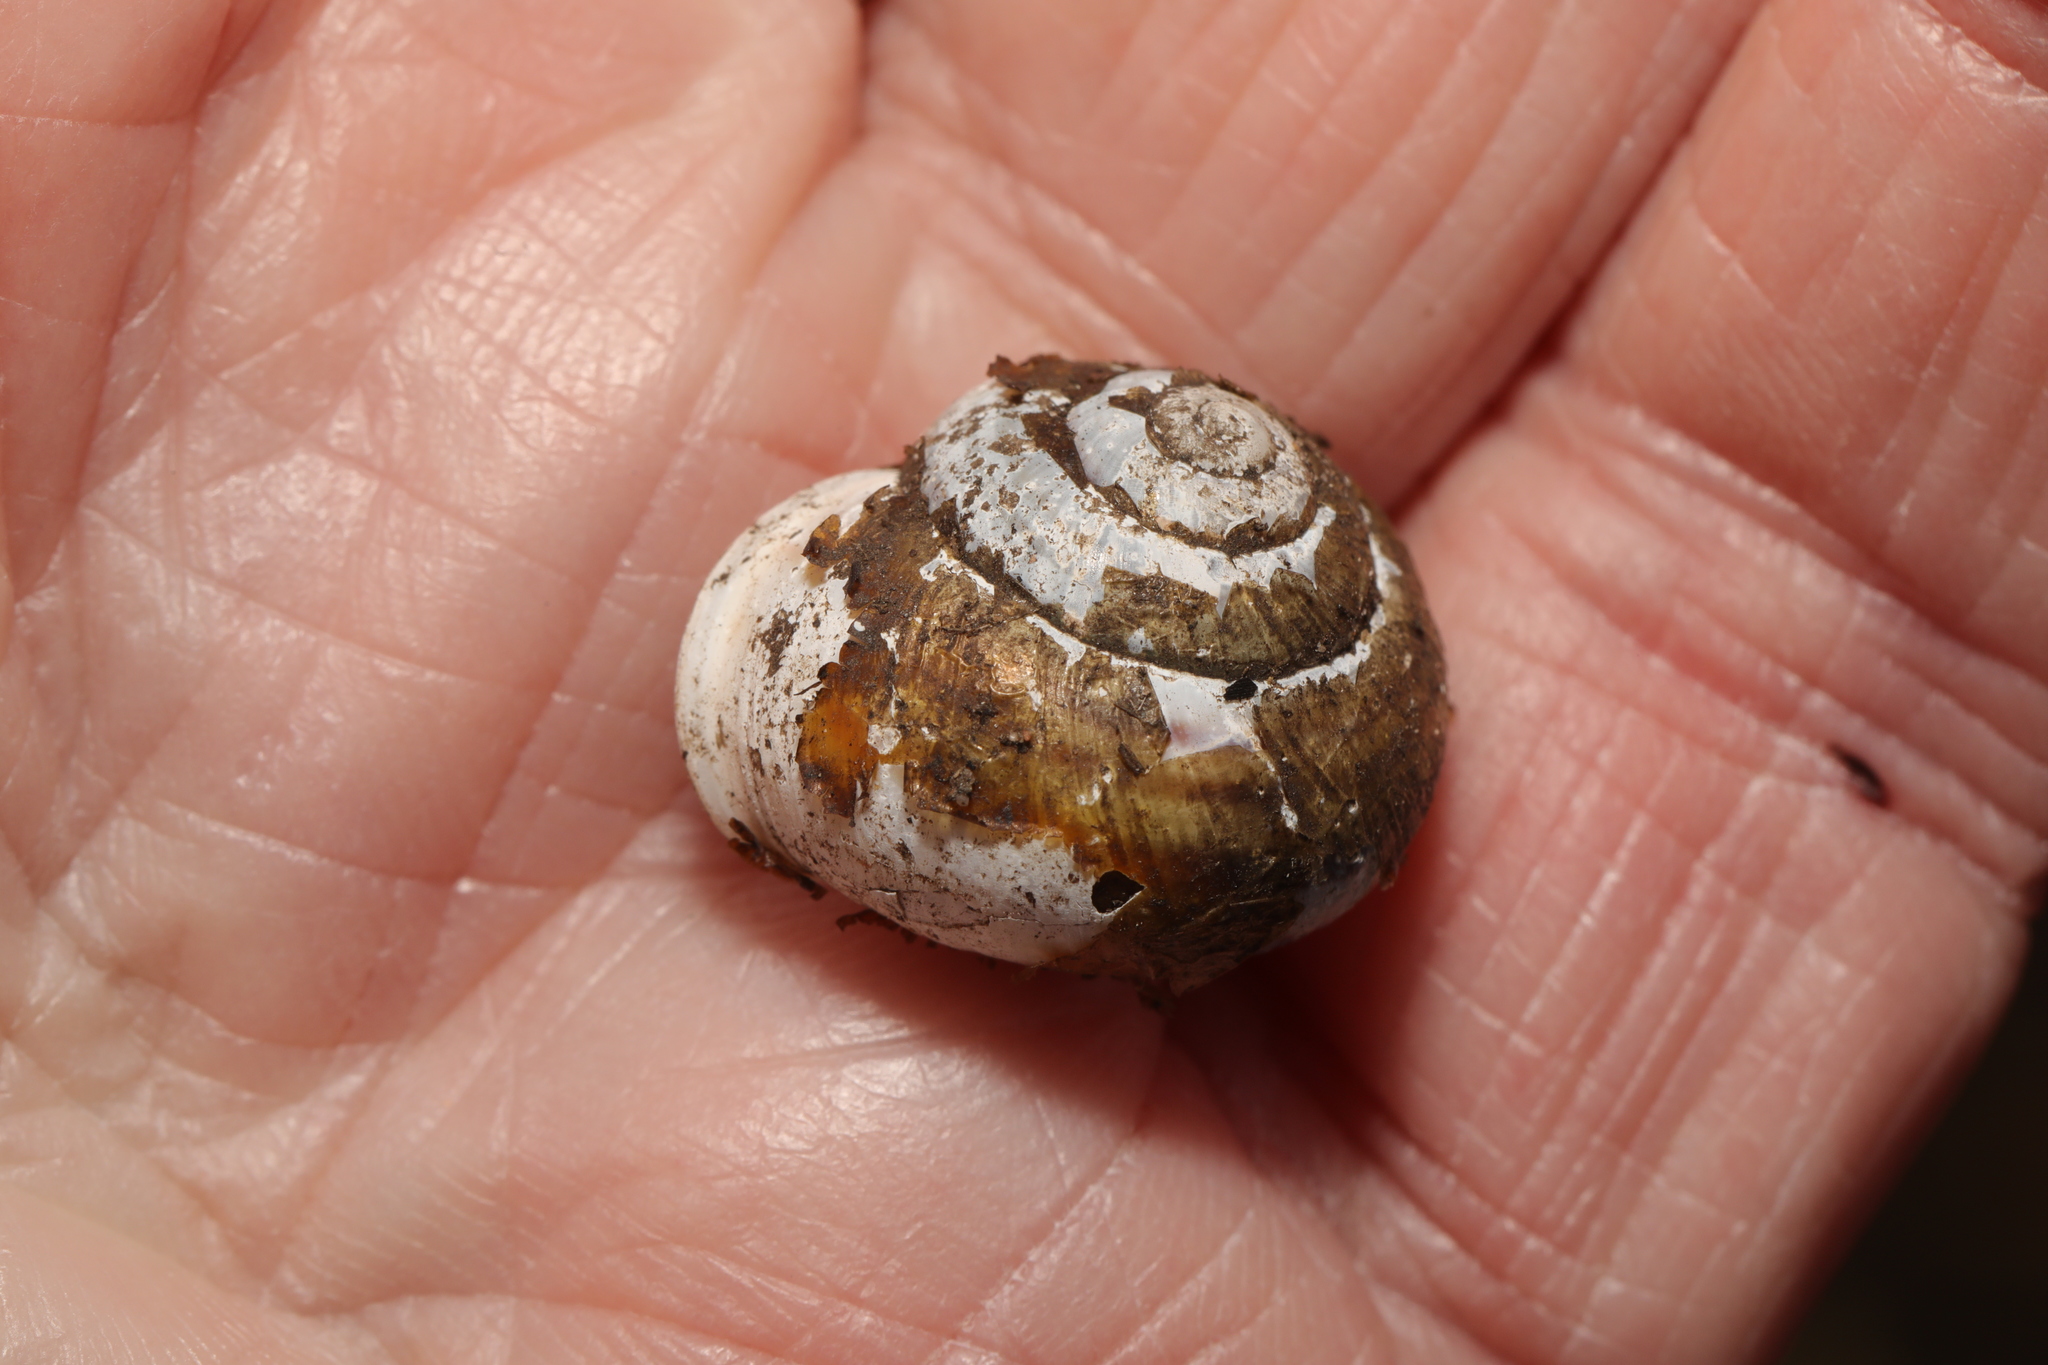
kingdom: Animalia
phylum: Mollusca
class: Gastropoda
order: Stylommatophora
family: Helicidae
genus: Cornu
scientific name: Cornu aspersum
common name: Brown garden snail
